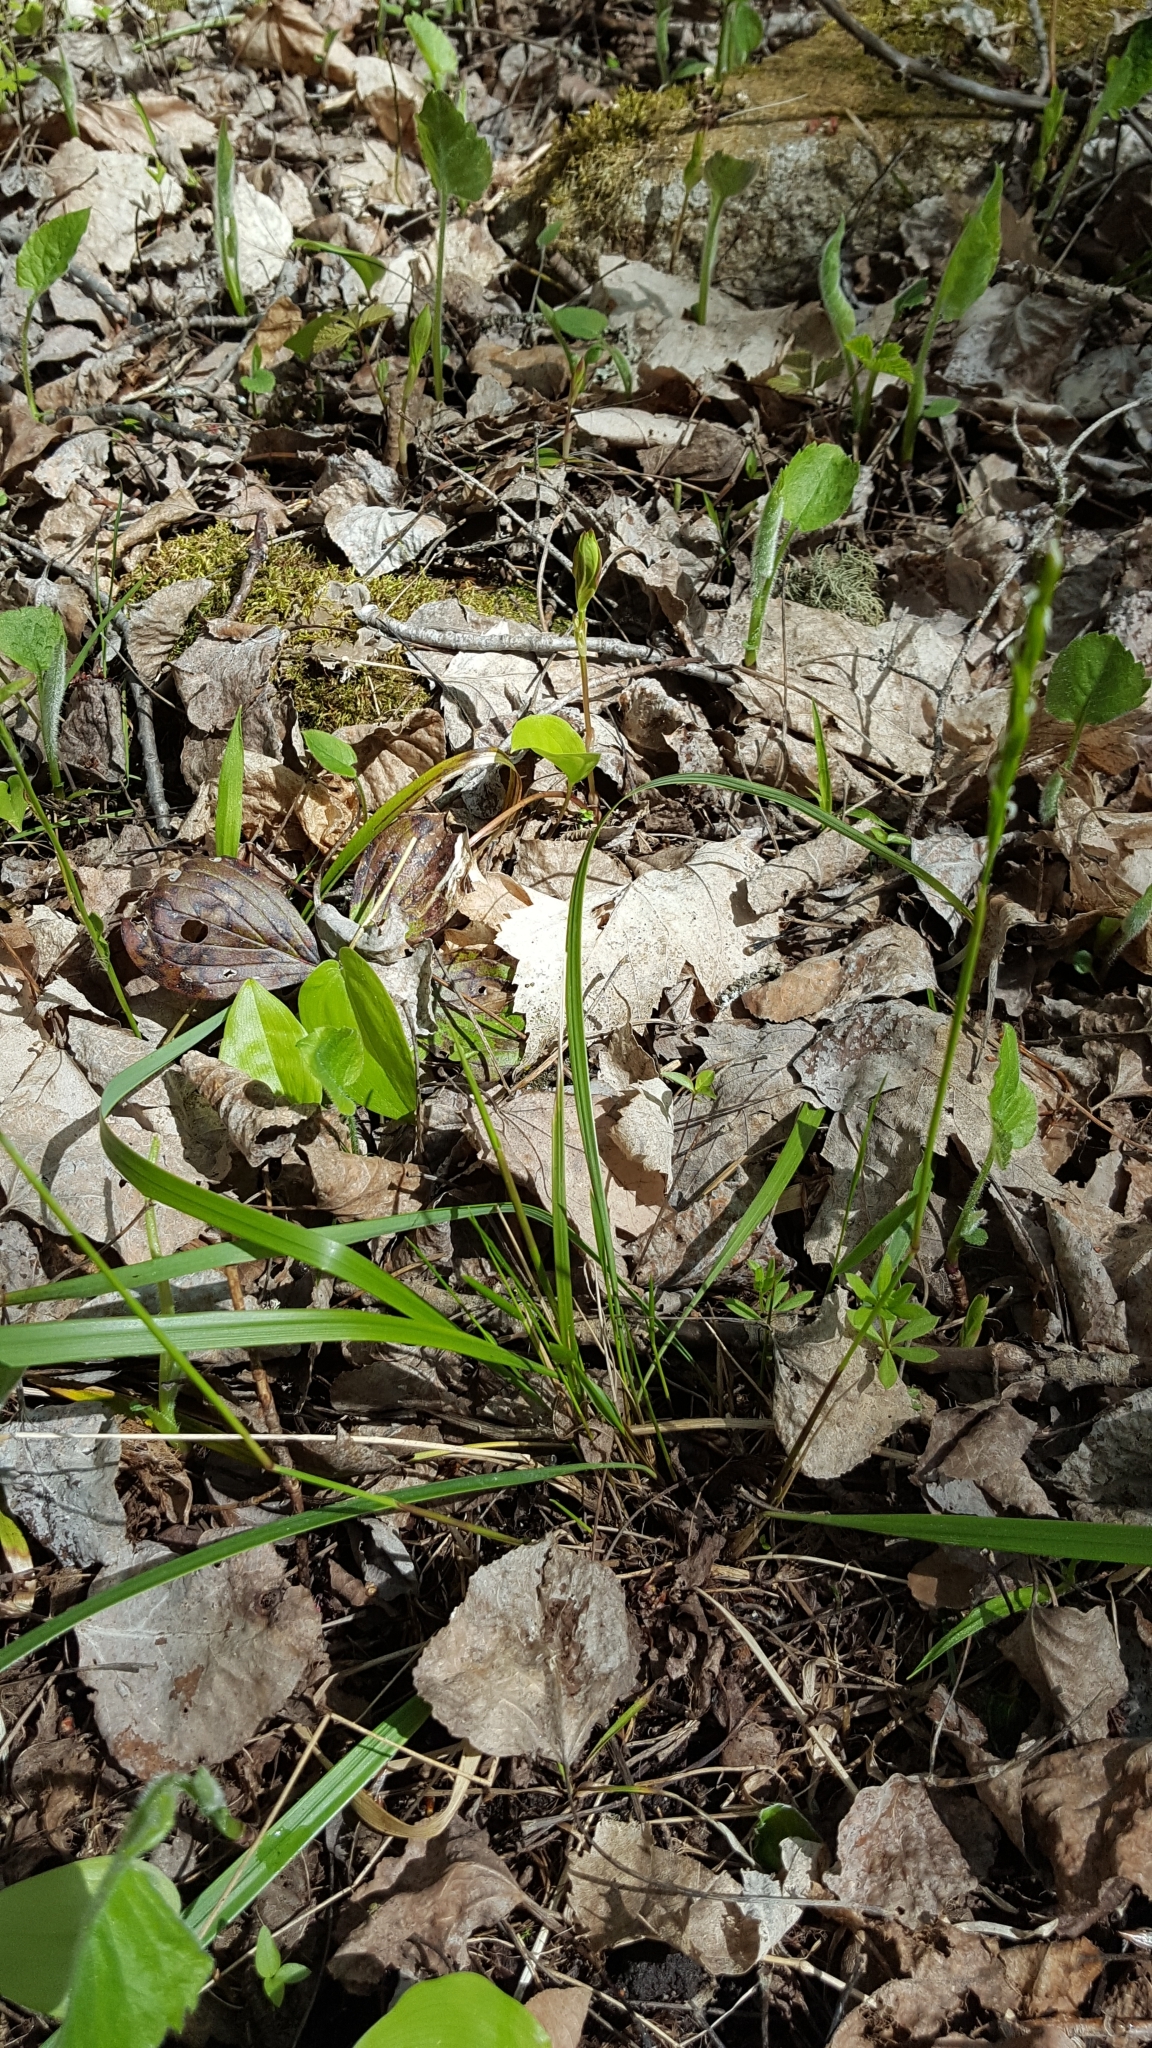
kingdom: Plantae
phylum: Tracheophyta
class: Liliopsida
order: Poales
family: Poaceae
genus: Oryzopsis
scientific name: Oryzopsis asperifolia
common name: Rough-leaved mountain rice
